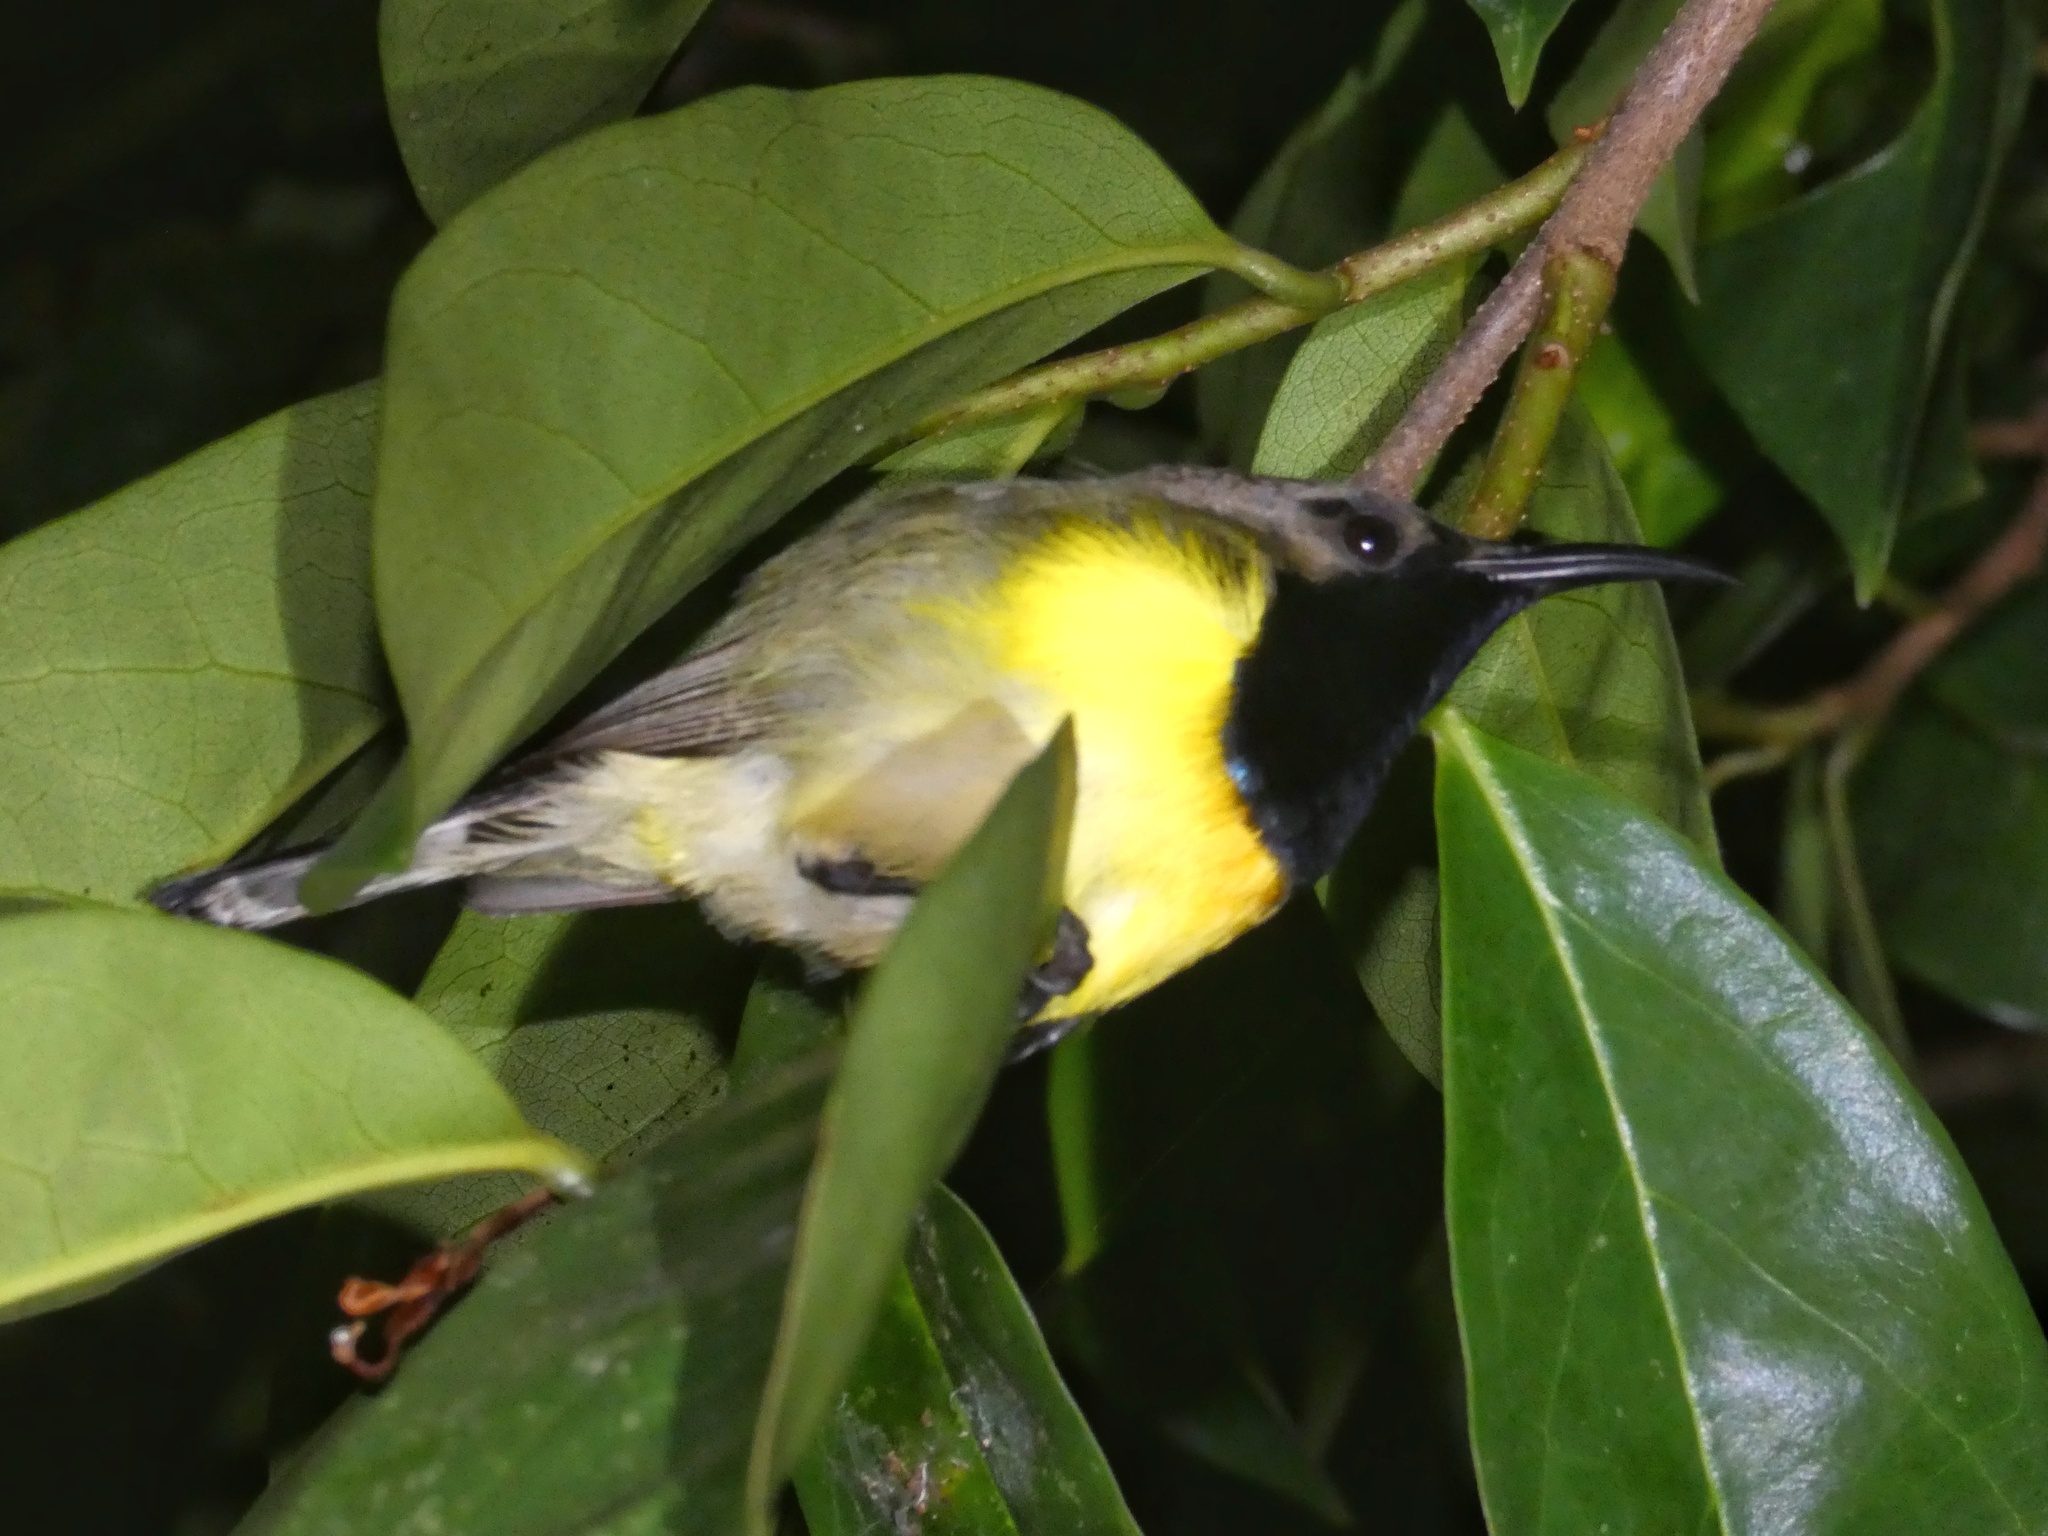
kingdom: Animalia
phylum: Chordata
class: Aves
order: Passeriformes
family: Nectariniidae
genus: Cinnyris
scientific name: Cinnyris jugularis
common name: Olive-backed sunbird
